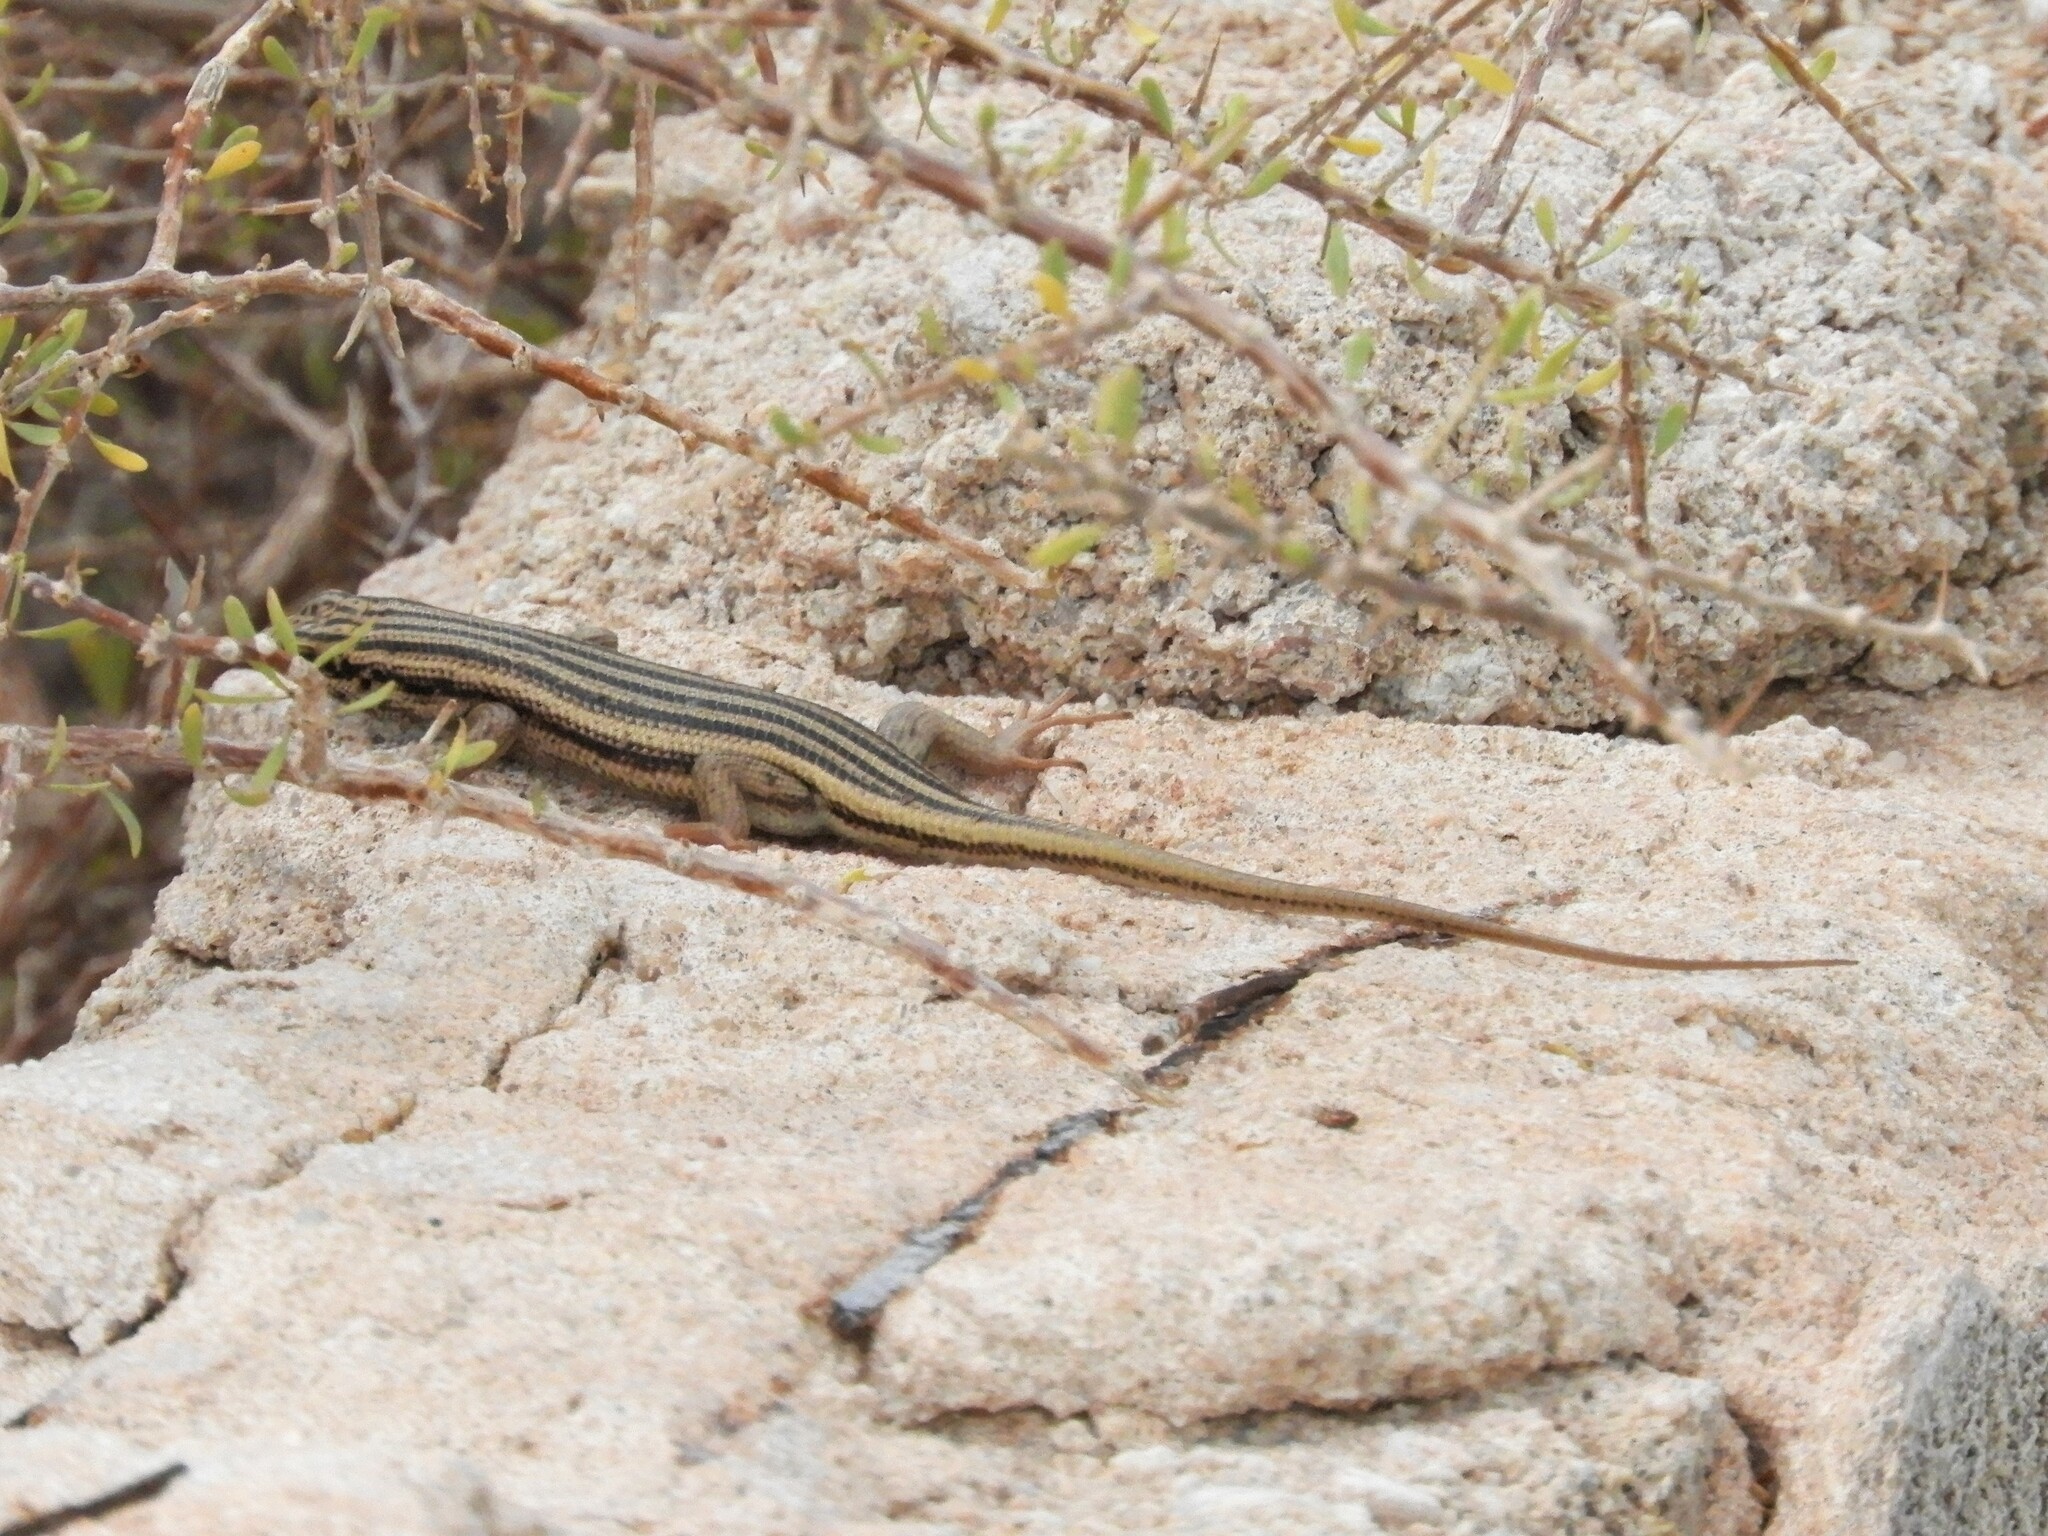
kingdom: Animalia
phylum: Chordata
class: Squamata
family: Scincidae
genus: Trachylepis
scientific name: Trachylepis sulcata
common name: Western rock skink
